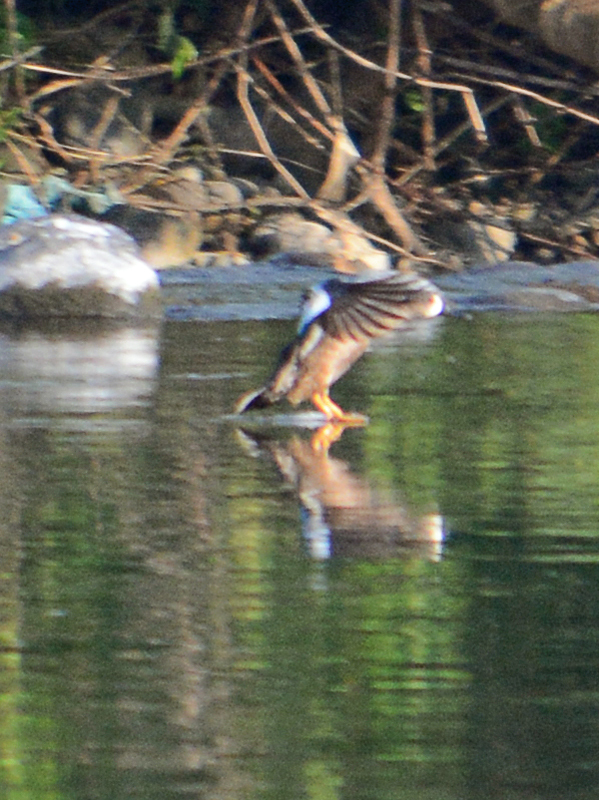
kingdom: Animalia
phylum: Chordata
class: Aves
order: Anseriformes
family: Anatidae
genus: Spatula
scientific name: Spatula discors
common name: Blue-winged teal
